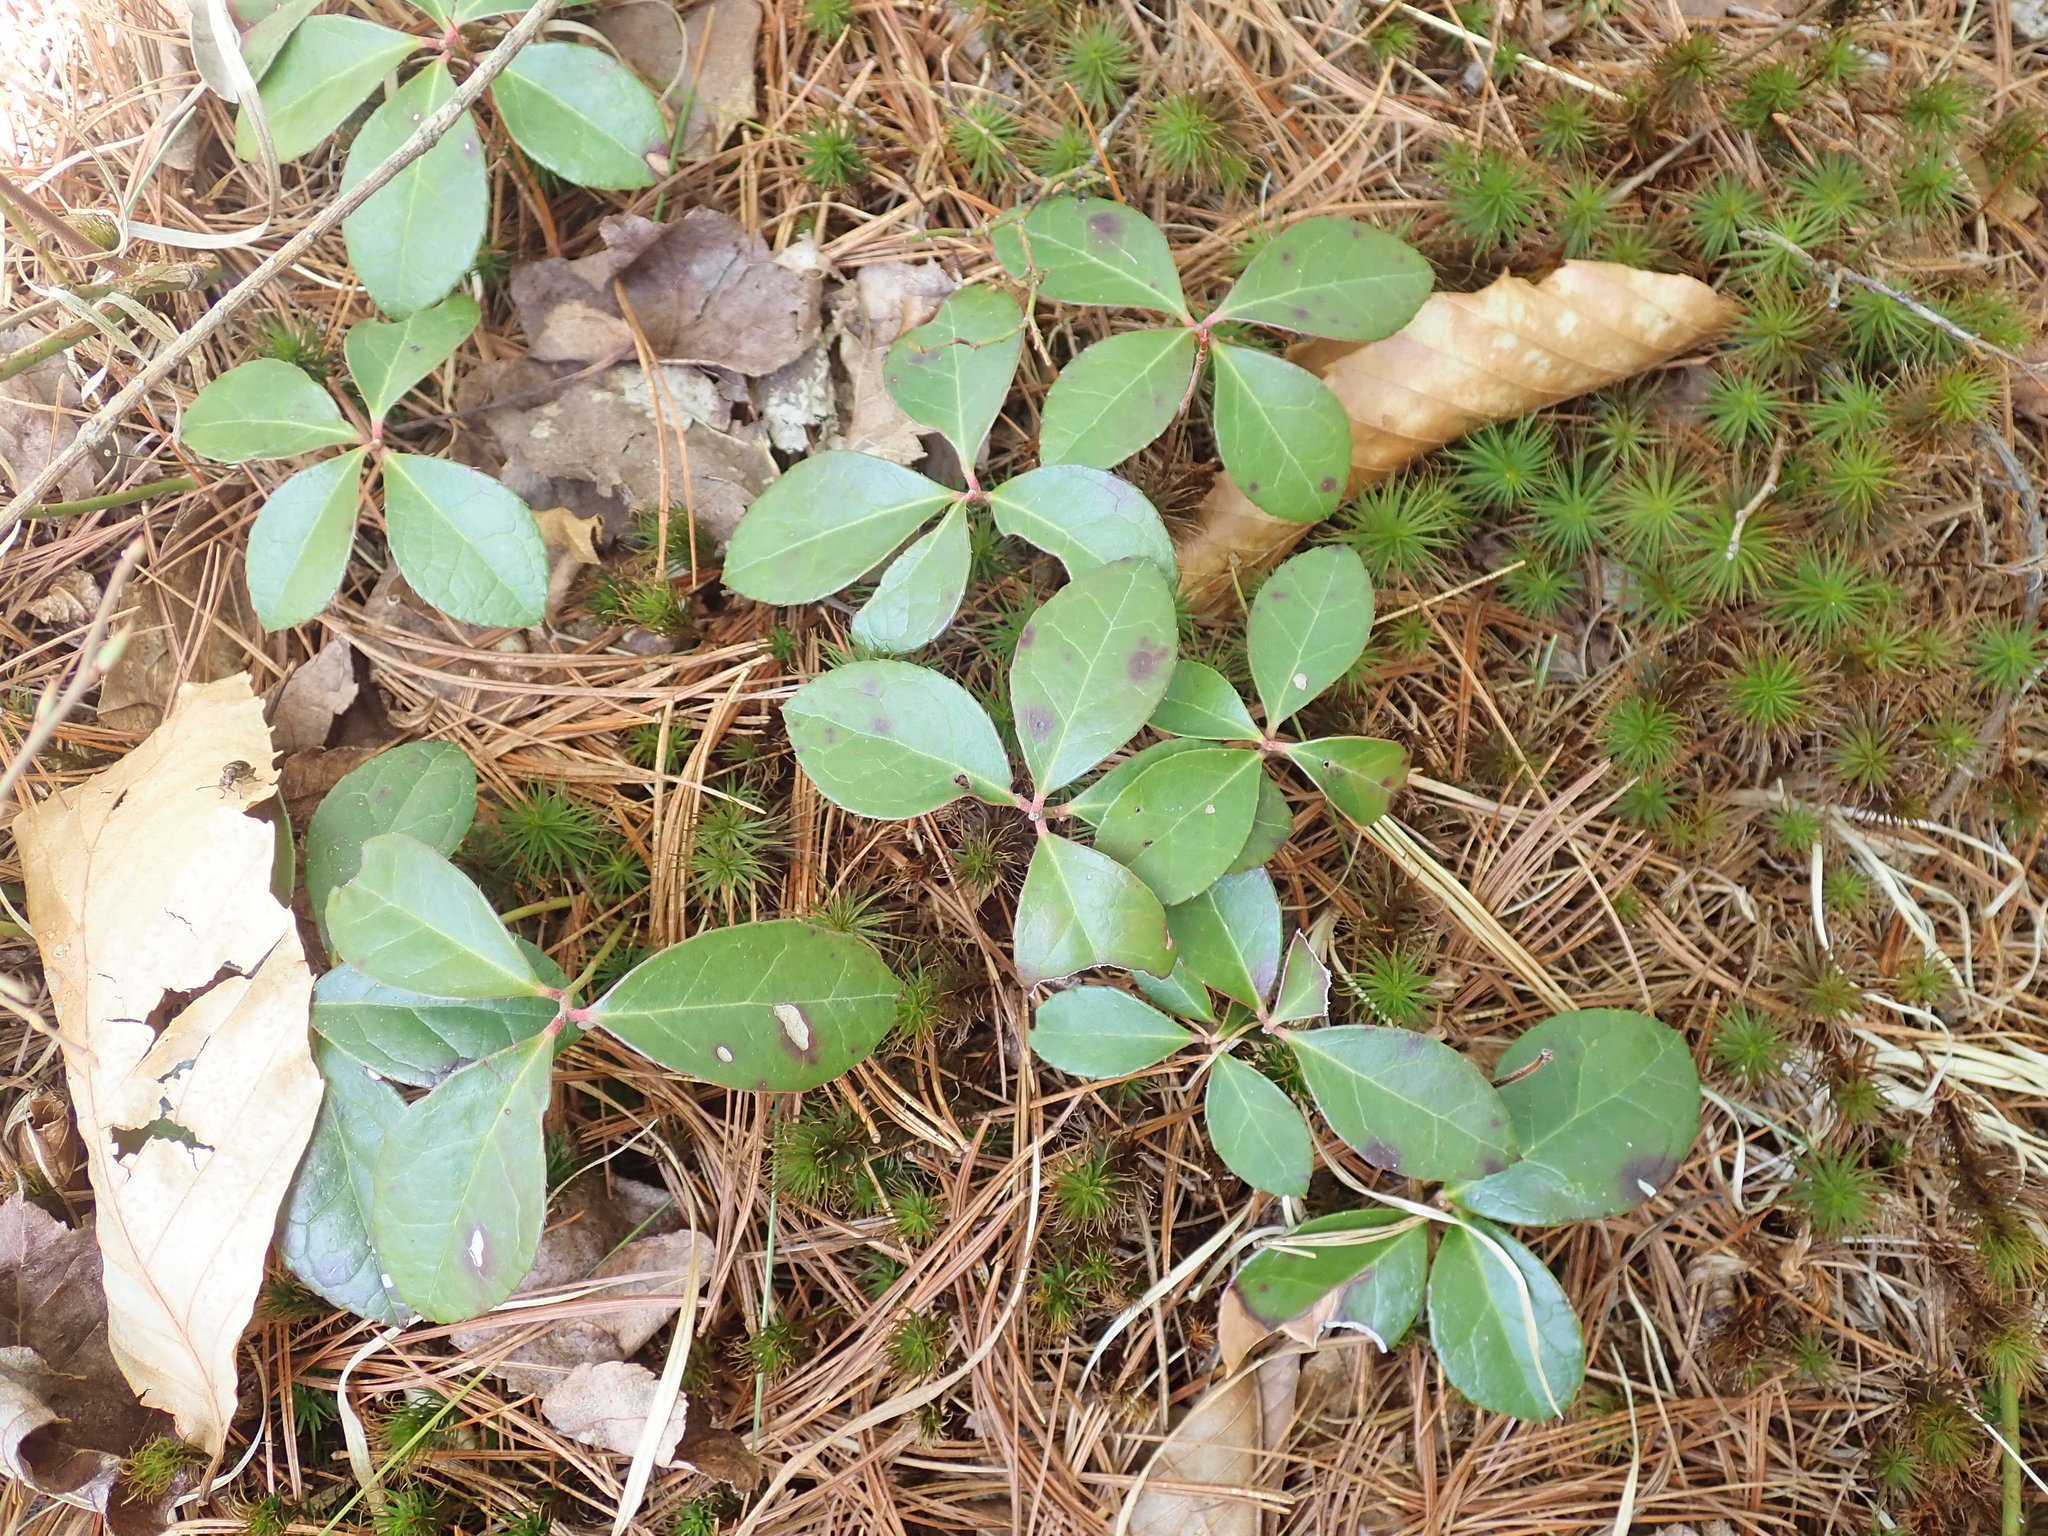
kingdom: Plantae
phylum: Tracheophyta
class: Magnoliopsida
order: Ericales
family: Ericaceae
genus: Gaultheria
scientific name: Gaultheria procumbens
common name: Checkerberry
